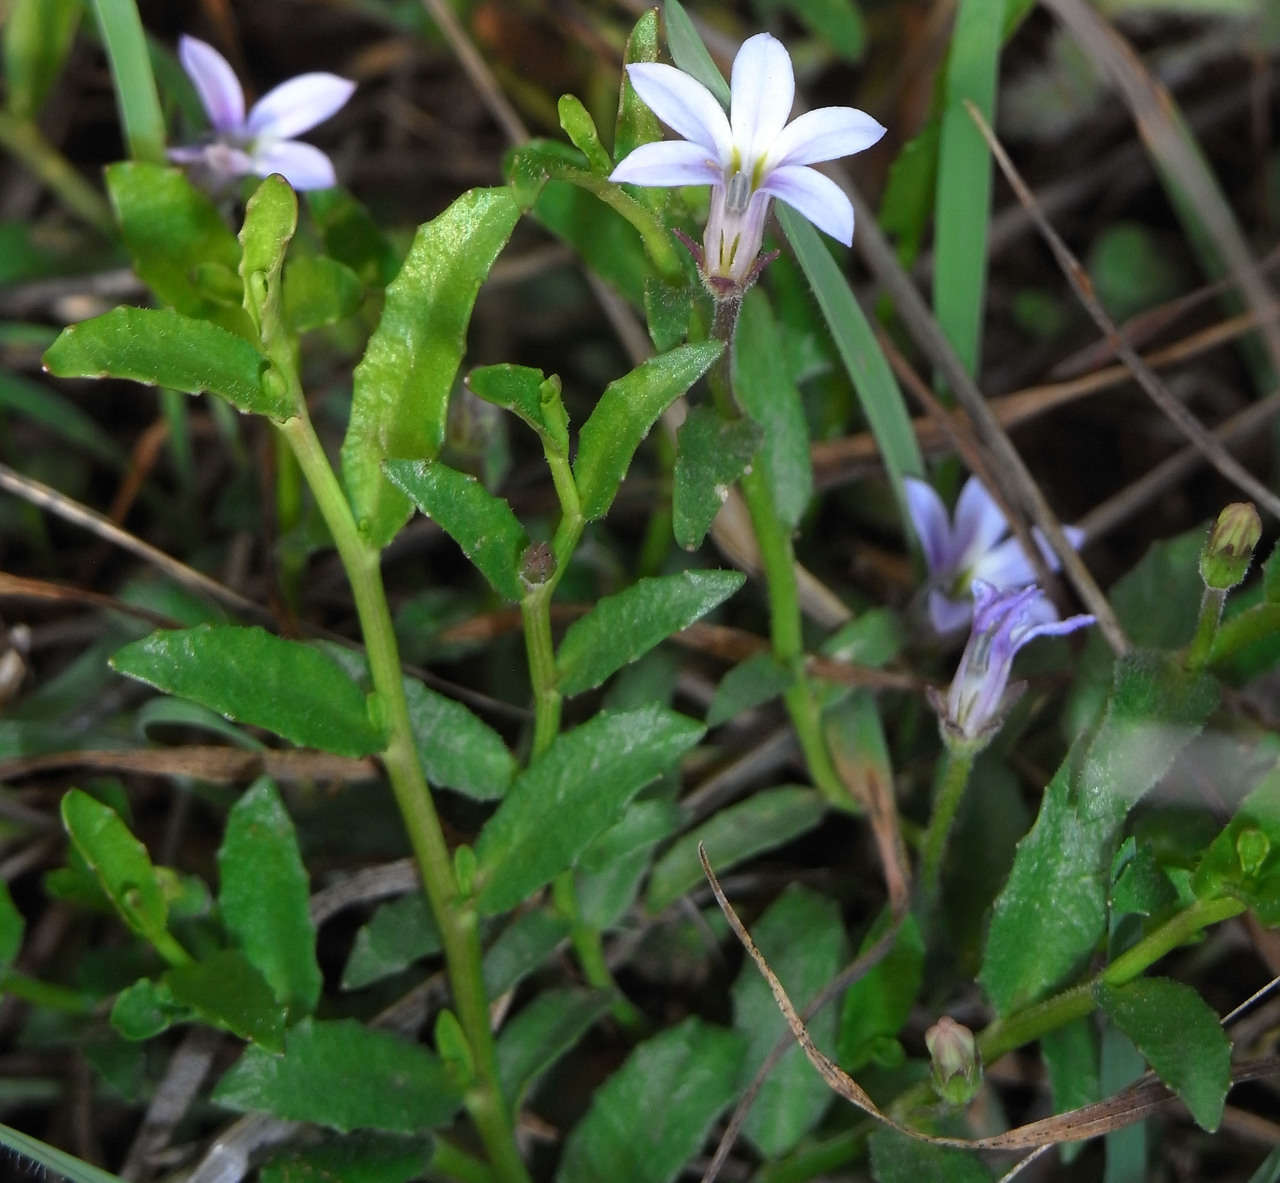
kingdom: Plantae
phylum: Tracheophyta
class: Magnoliopsida
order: Asterales
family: Campanulaceae
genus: Lobelia
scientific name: Lobelia pratioides
